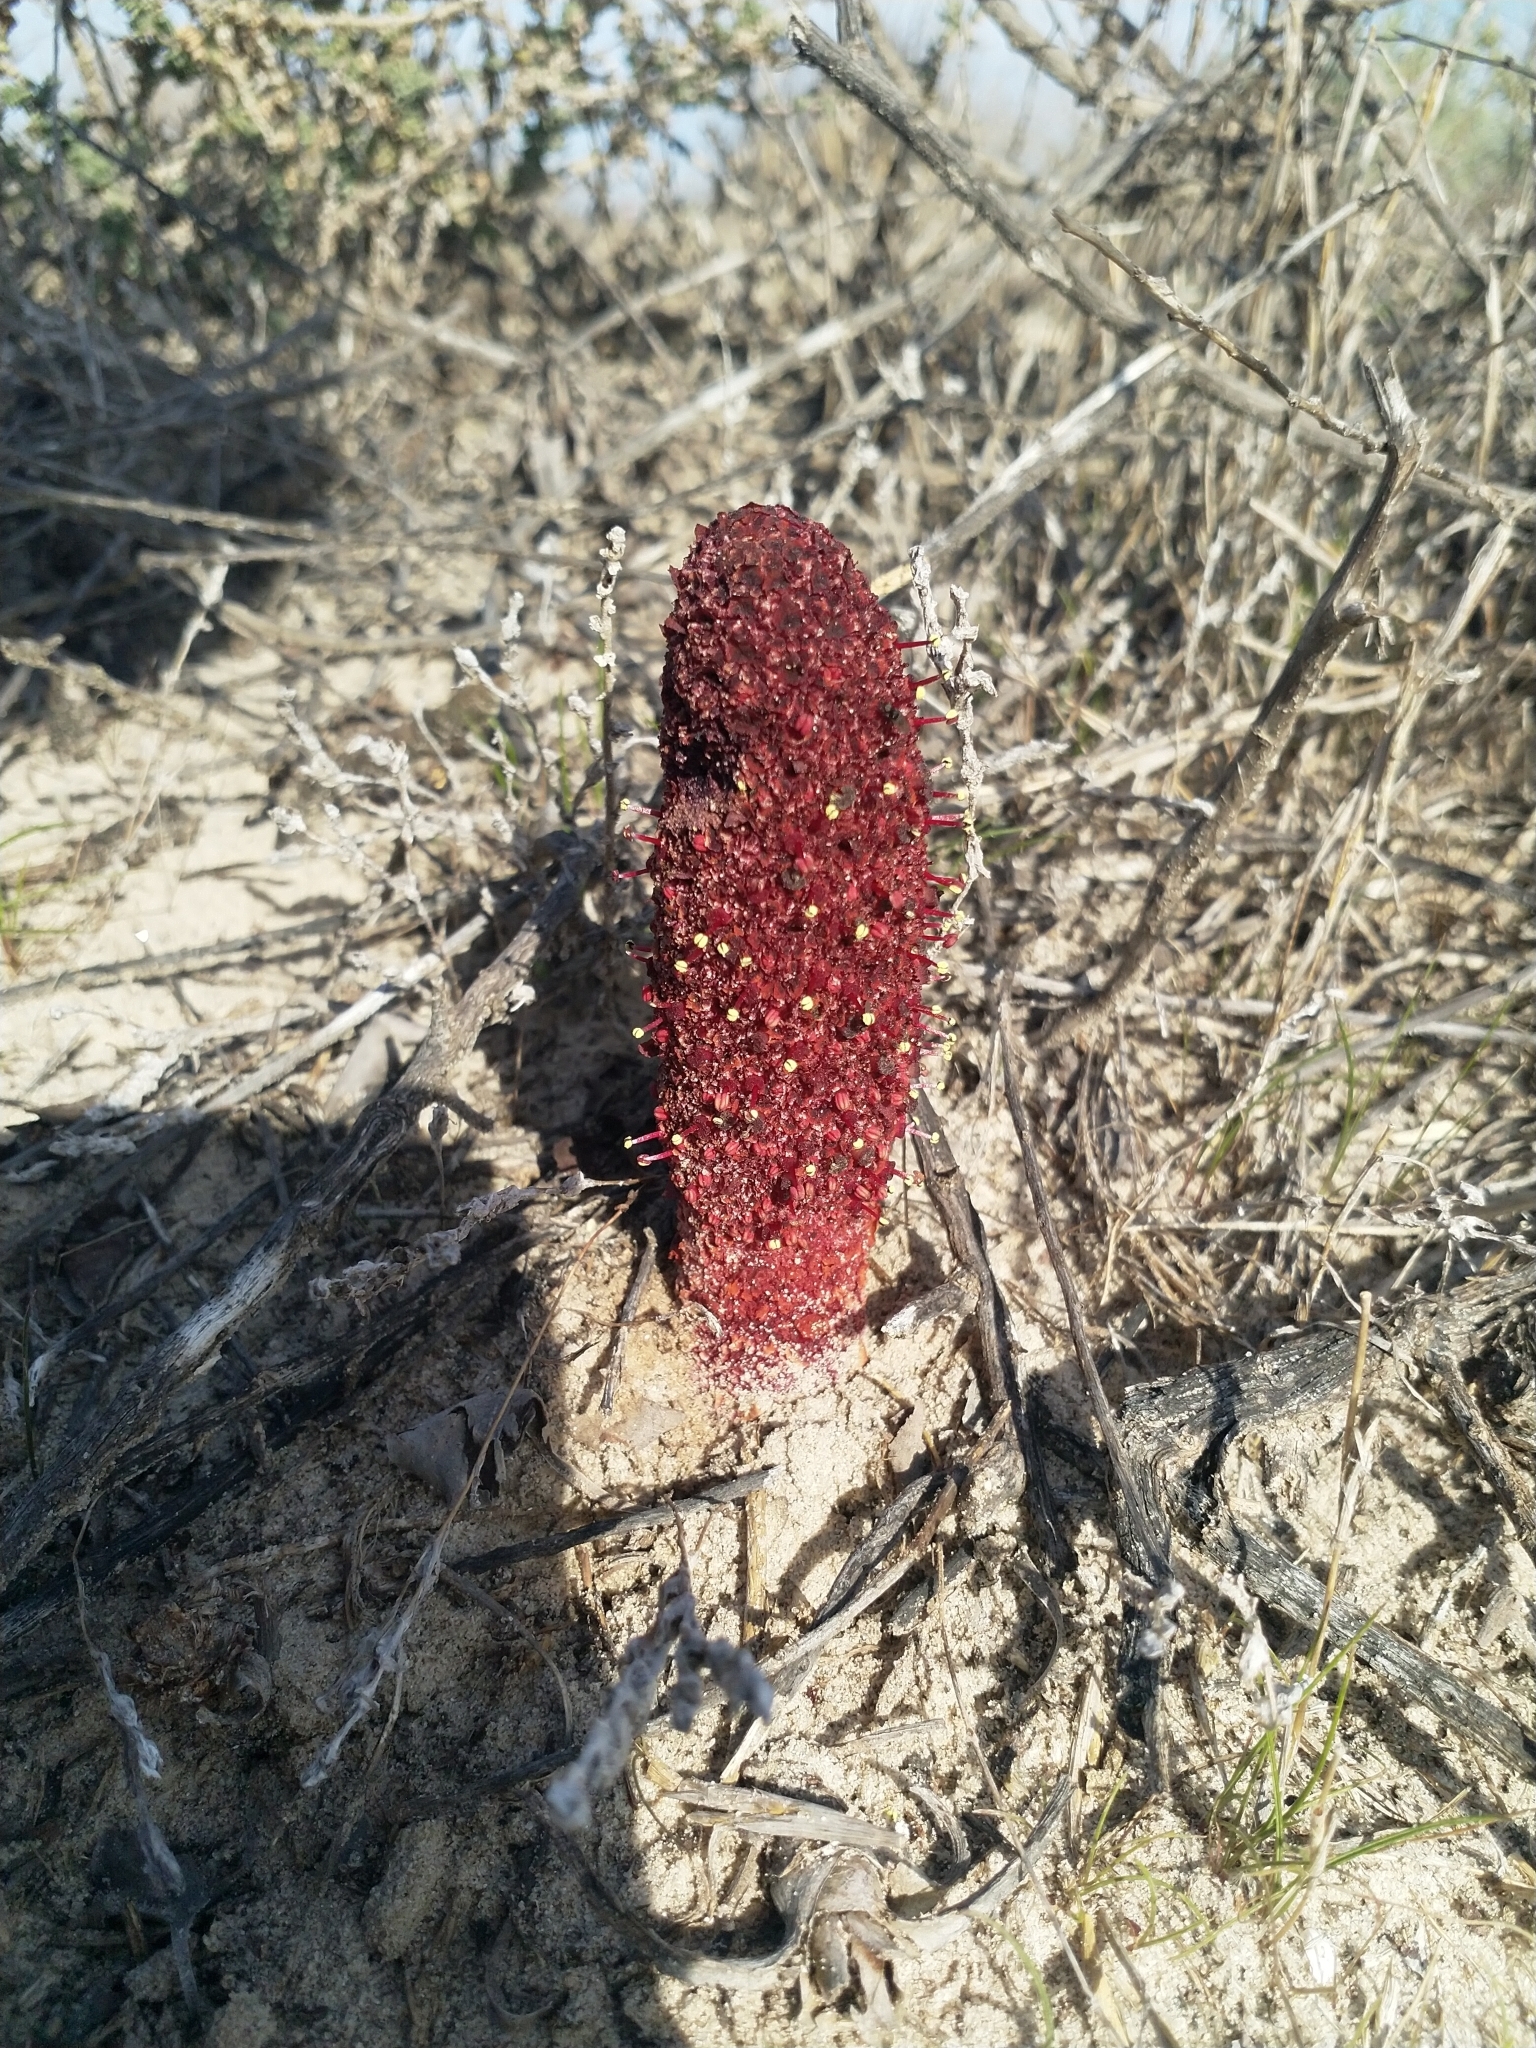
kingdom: Plantae
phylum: Tracheophyta
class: Magnoliopsida
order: Saxifragales
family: Cynomoriaceae
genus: Cynomorium
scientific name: Cynomorium coccineum
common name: Maltese-mushroom
